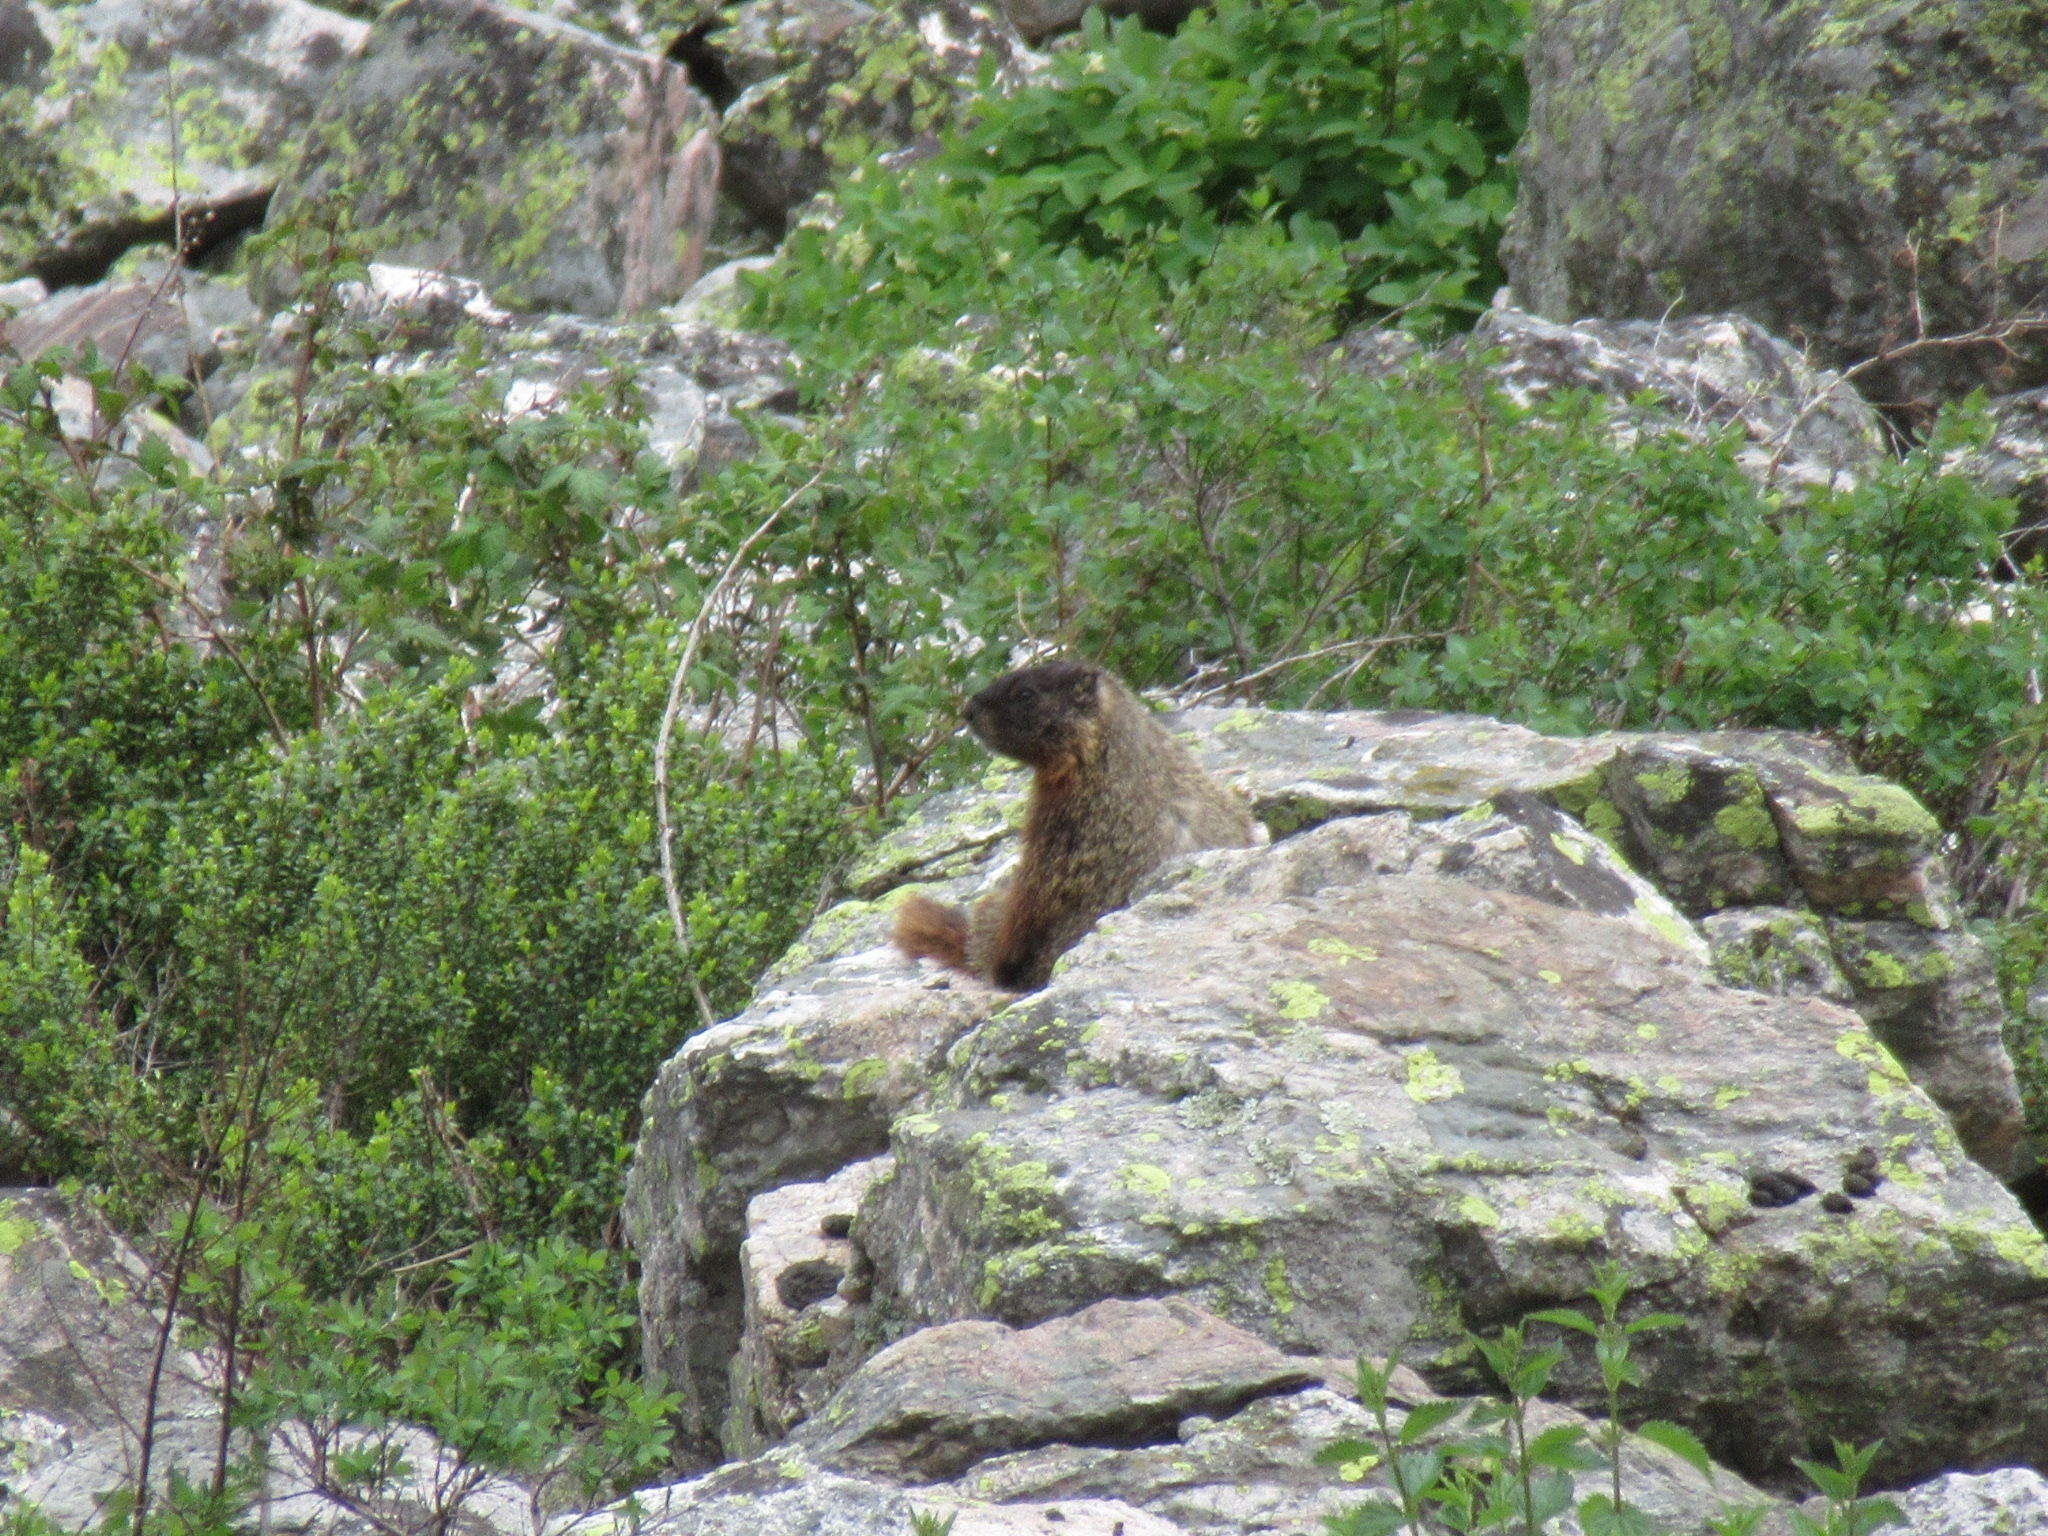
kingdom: Animalia
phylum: Chordata
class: Mammalia
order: Rodentia
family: Sciuridae
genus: Marmota
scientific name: Marmota flaviventris
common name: Yellow-bellied marmot
